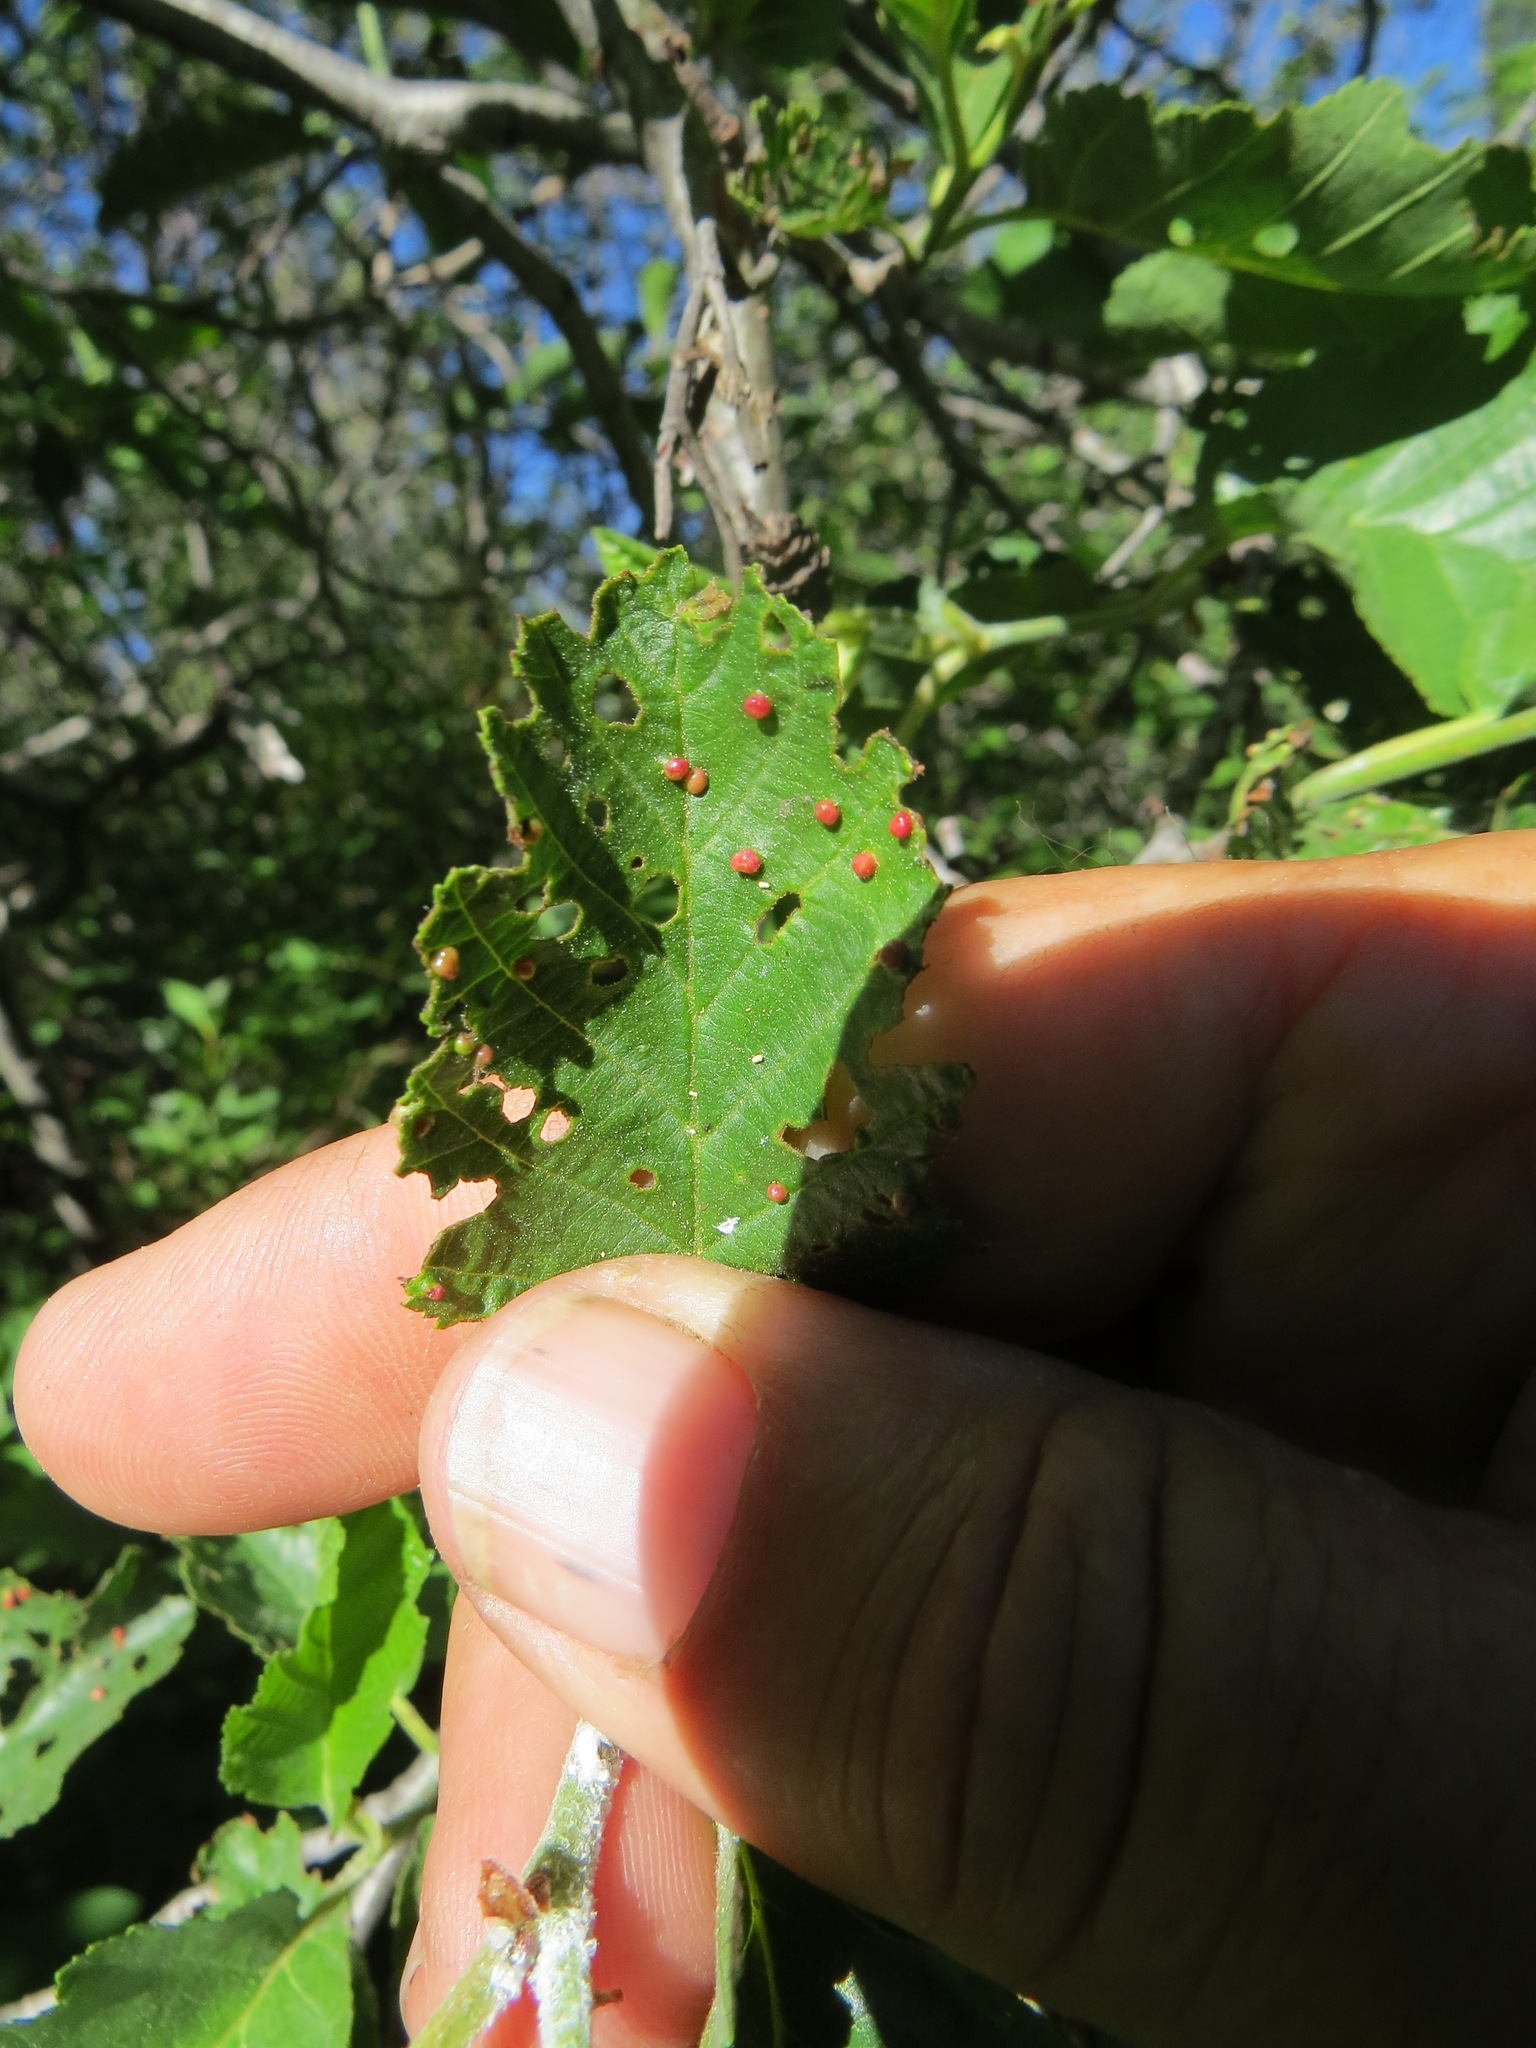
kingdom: Animalia
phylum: Arthropoda
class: Arachnida
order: Trombidiformes
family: Eriophyidae
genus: Eriophyes
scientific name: Eriophyes laevis
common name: Alder leaf gall mite
